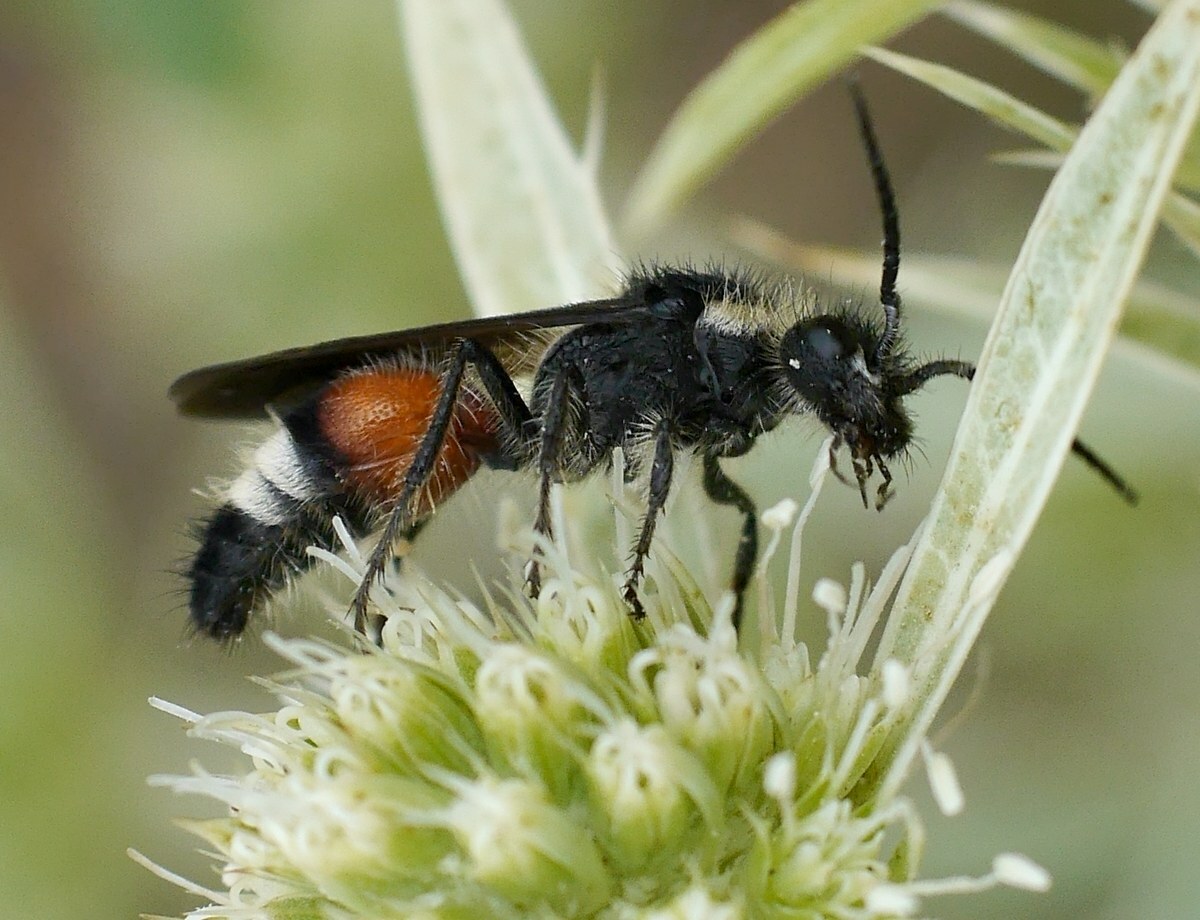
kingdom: Animalia
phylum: Arthropoda
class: Insecta
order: Hymenoptera
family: Mutillidae
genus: Nemka
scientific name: Nemka viduata
